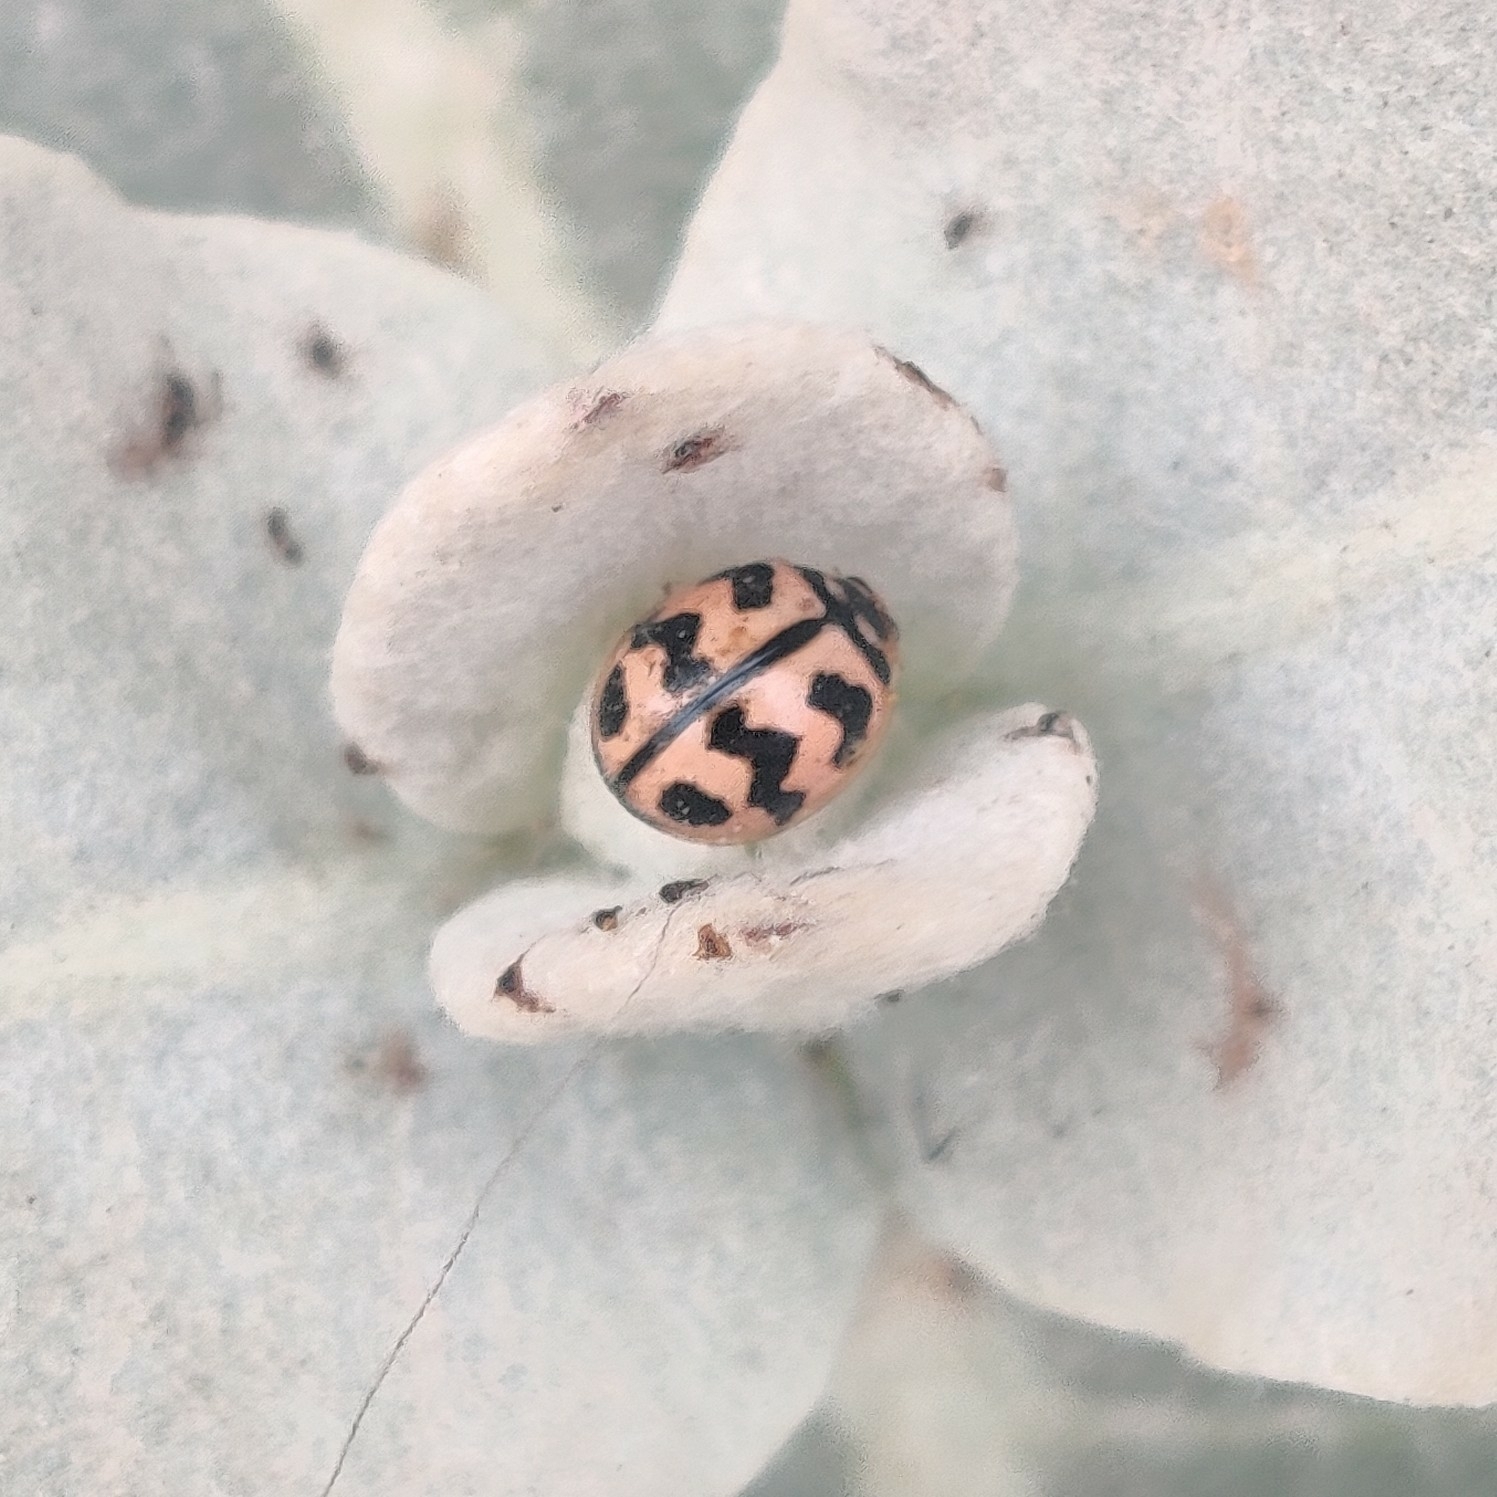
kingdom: Animalia
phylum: Arthropoda
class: Insecta
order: Coleoptera
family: Coccinellidae
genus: Cheilomenes
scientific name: Cheilomenes sexmaculata
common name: Ladybird beetle
